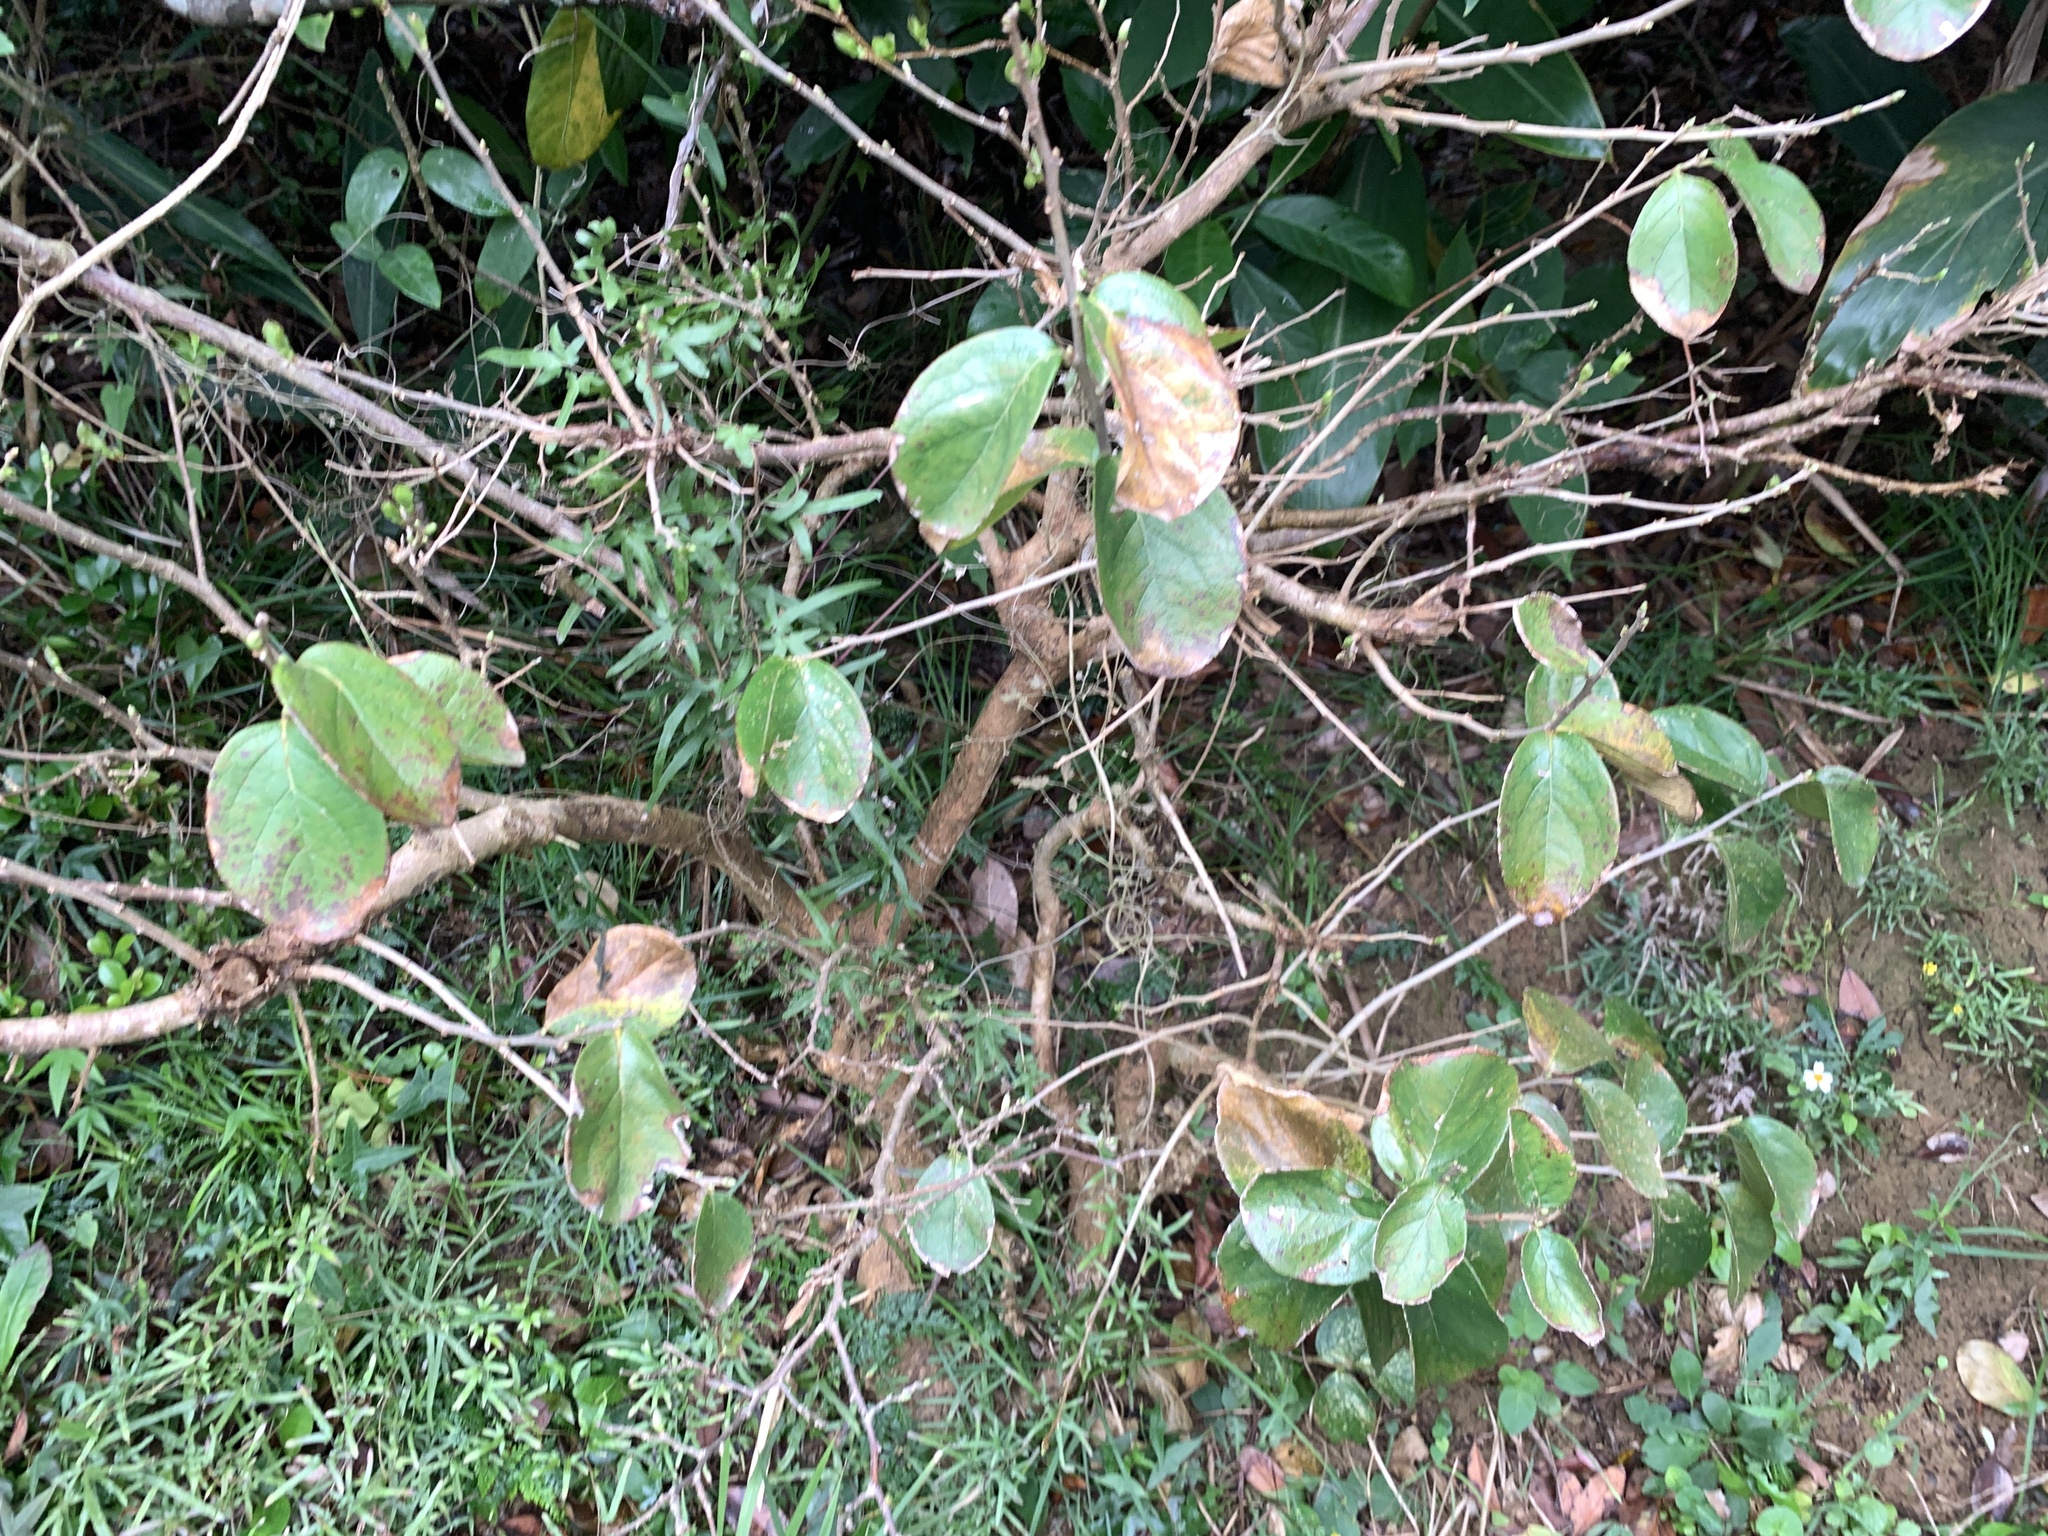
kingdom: Plantae
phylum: Tracheophyta
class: Magnoliopsida
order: Ericales
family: Symplocaceae
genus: Symplocos
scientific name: Symplocos paniculata
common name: Sapphire-berry
